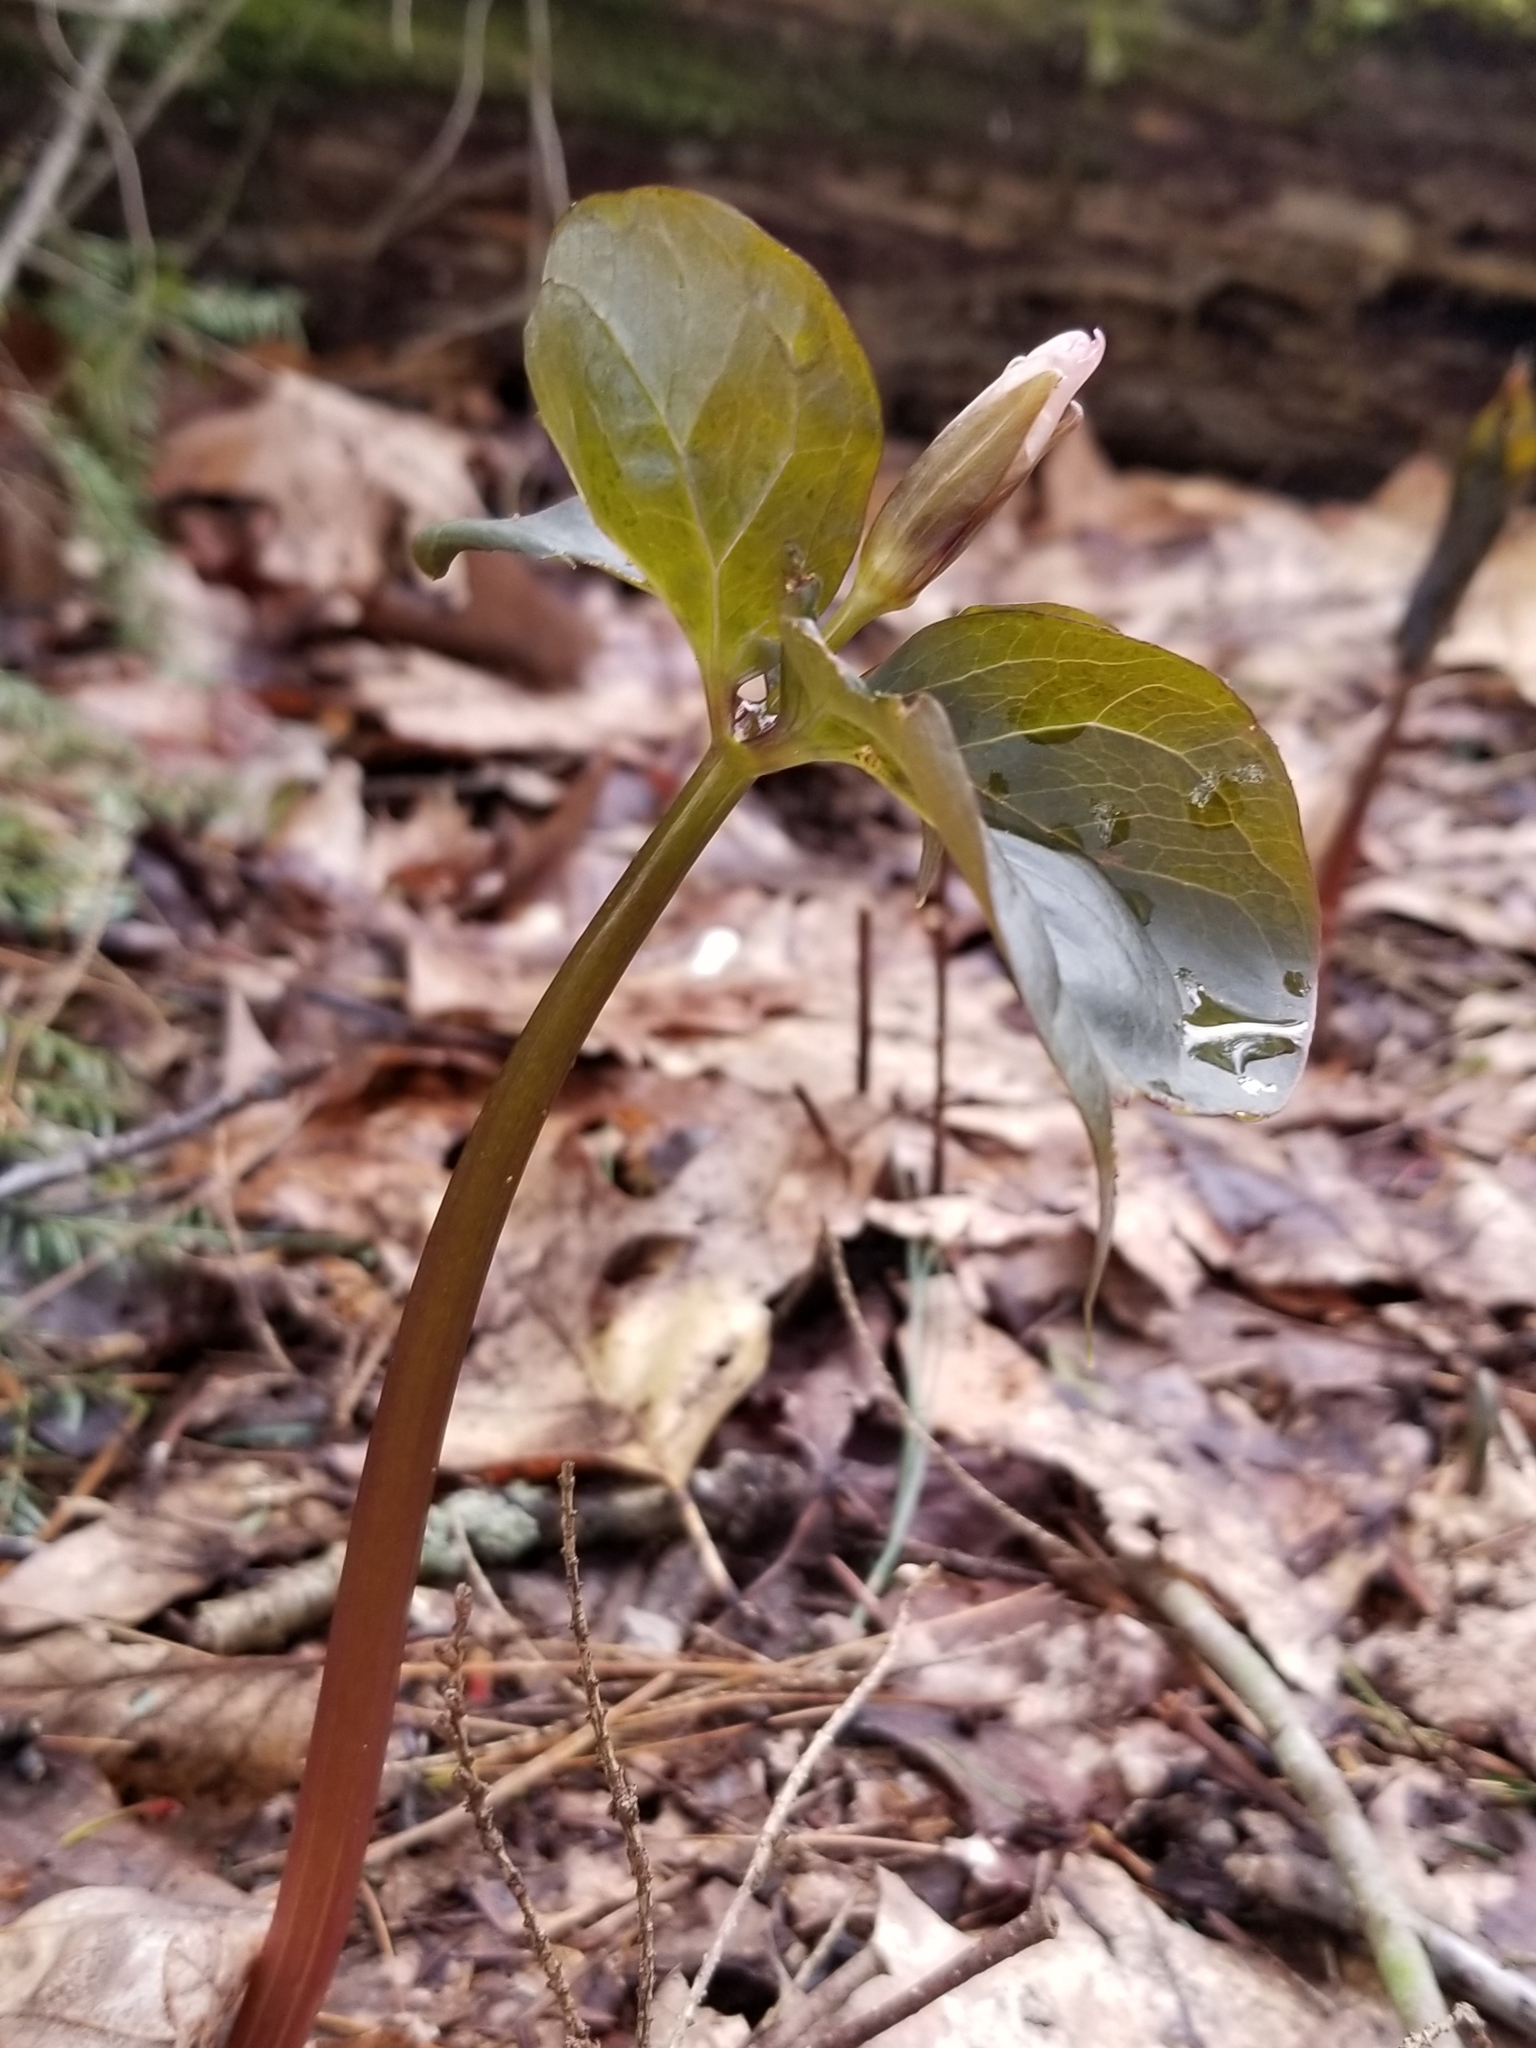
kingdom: Plantae
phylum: Tracheophyta
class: Liliopsida
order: Liliales
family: Melanthiaceae
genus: Trillium
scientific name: Trillium undulatum
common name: Paint trillium
